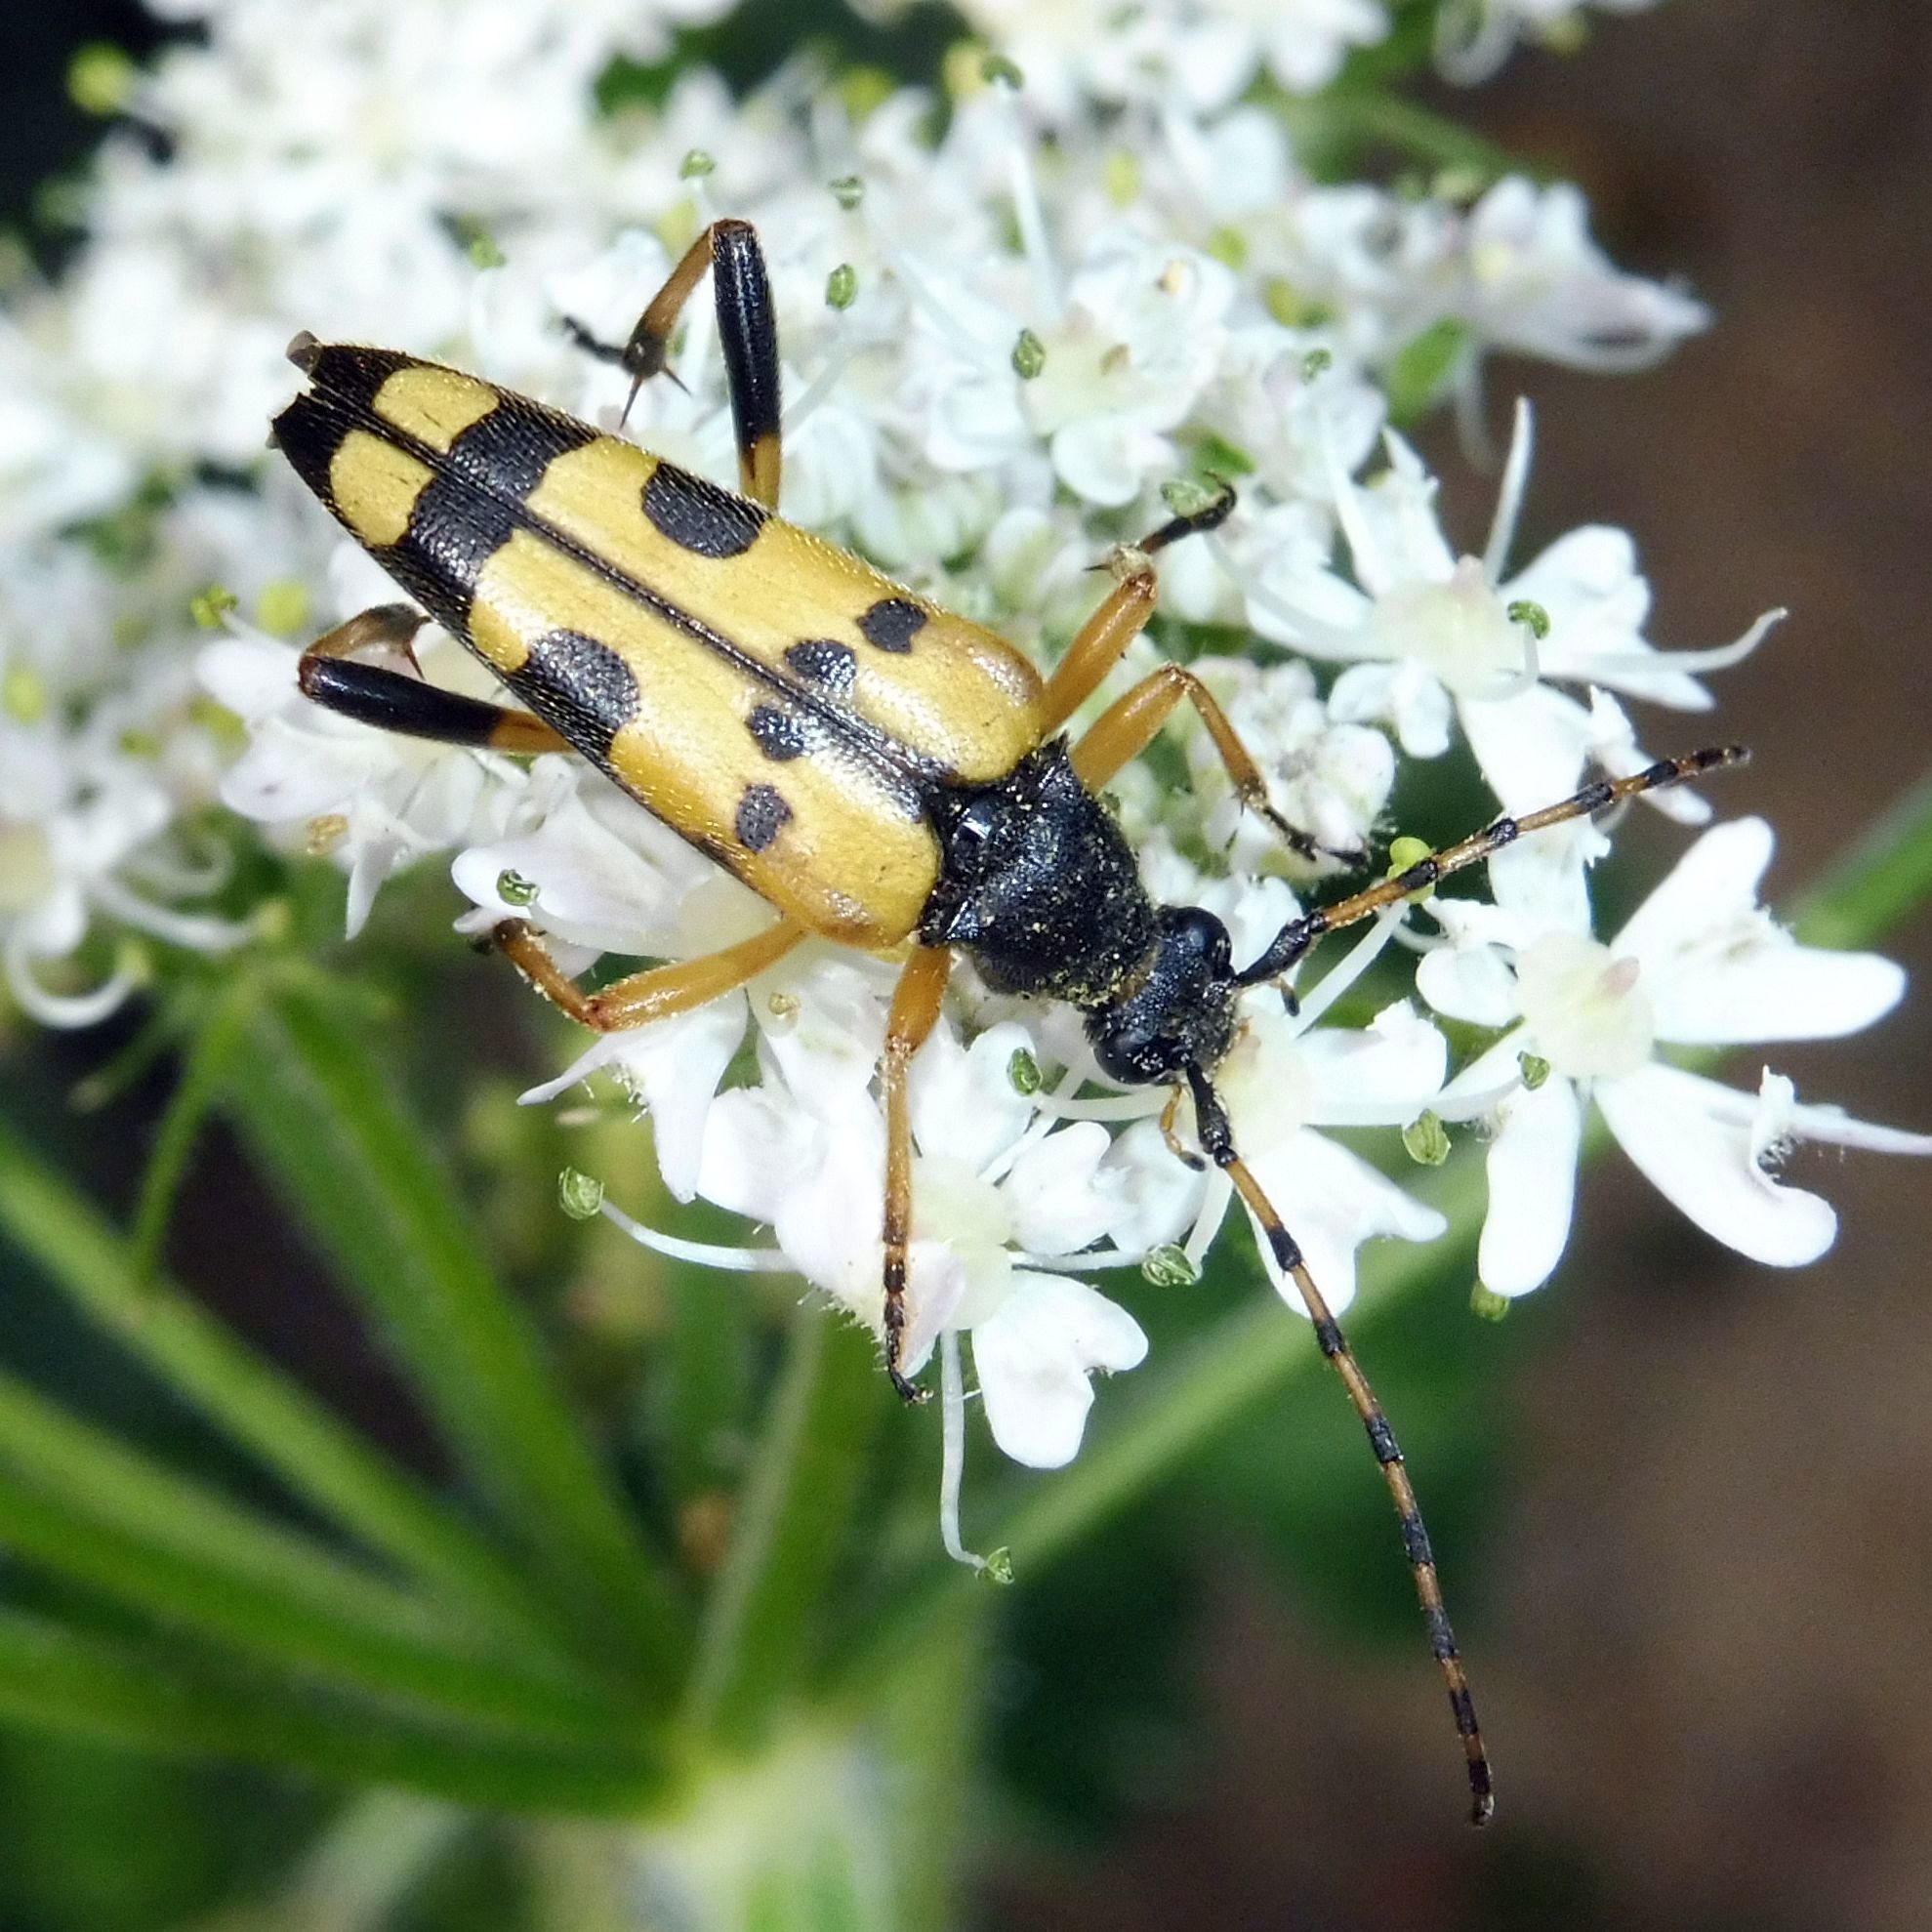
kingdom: Animalia
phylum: Arthropoda
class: Insecta
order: Coleoptera
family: Cerambycidae
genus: Rutpela
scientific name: Rutpela maculata
